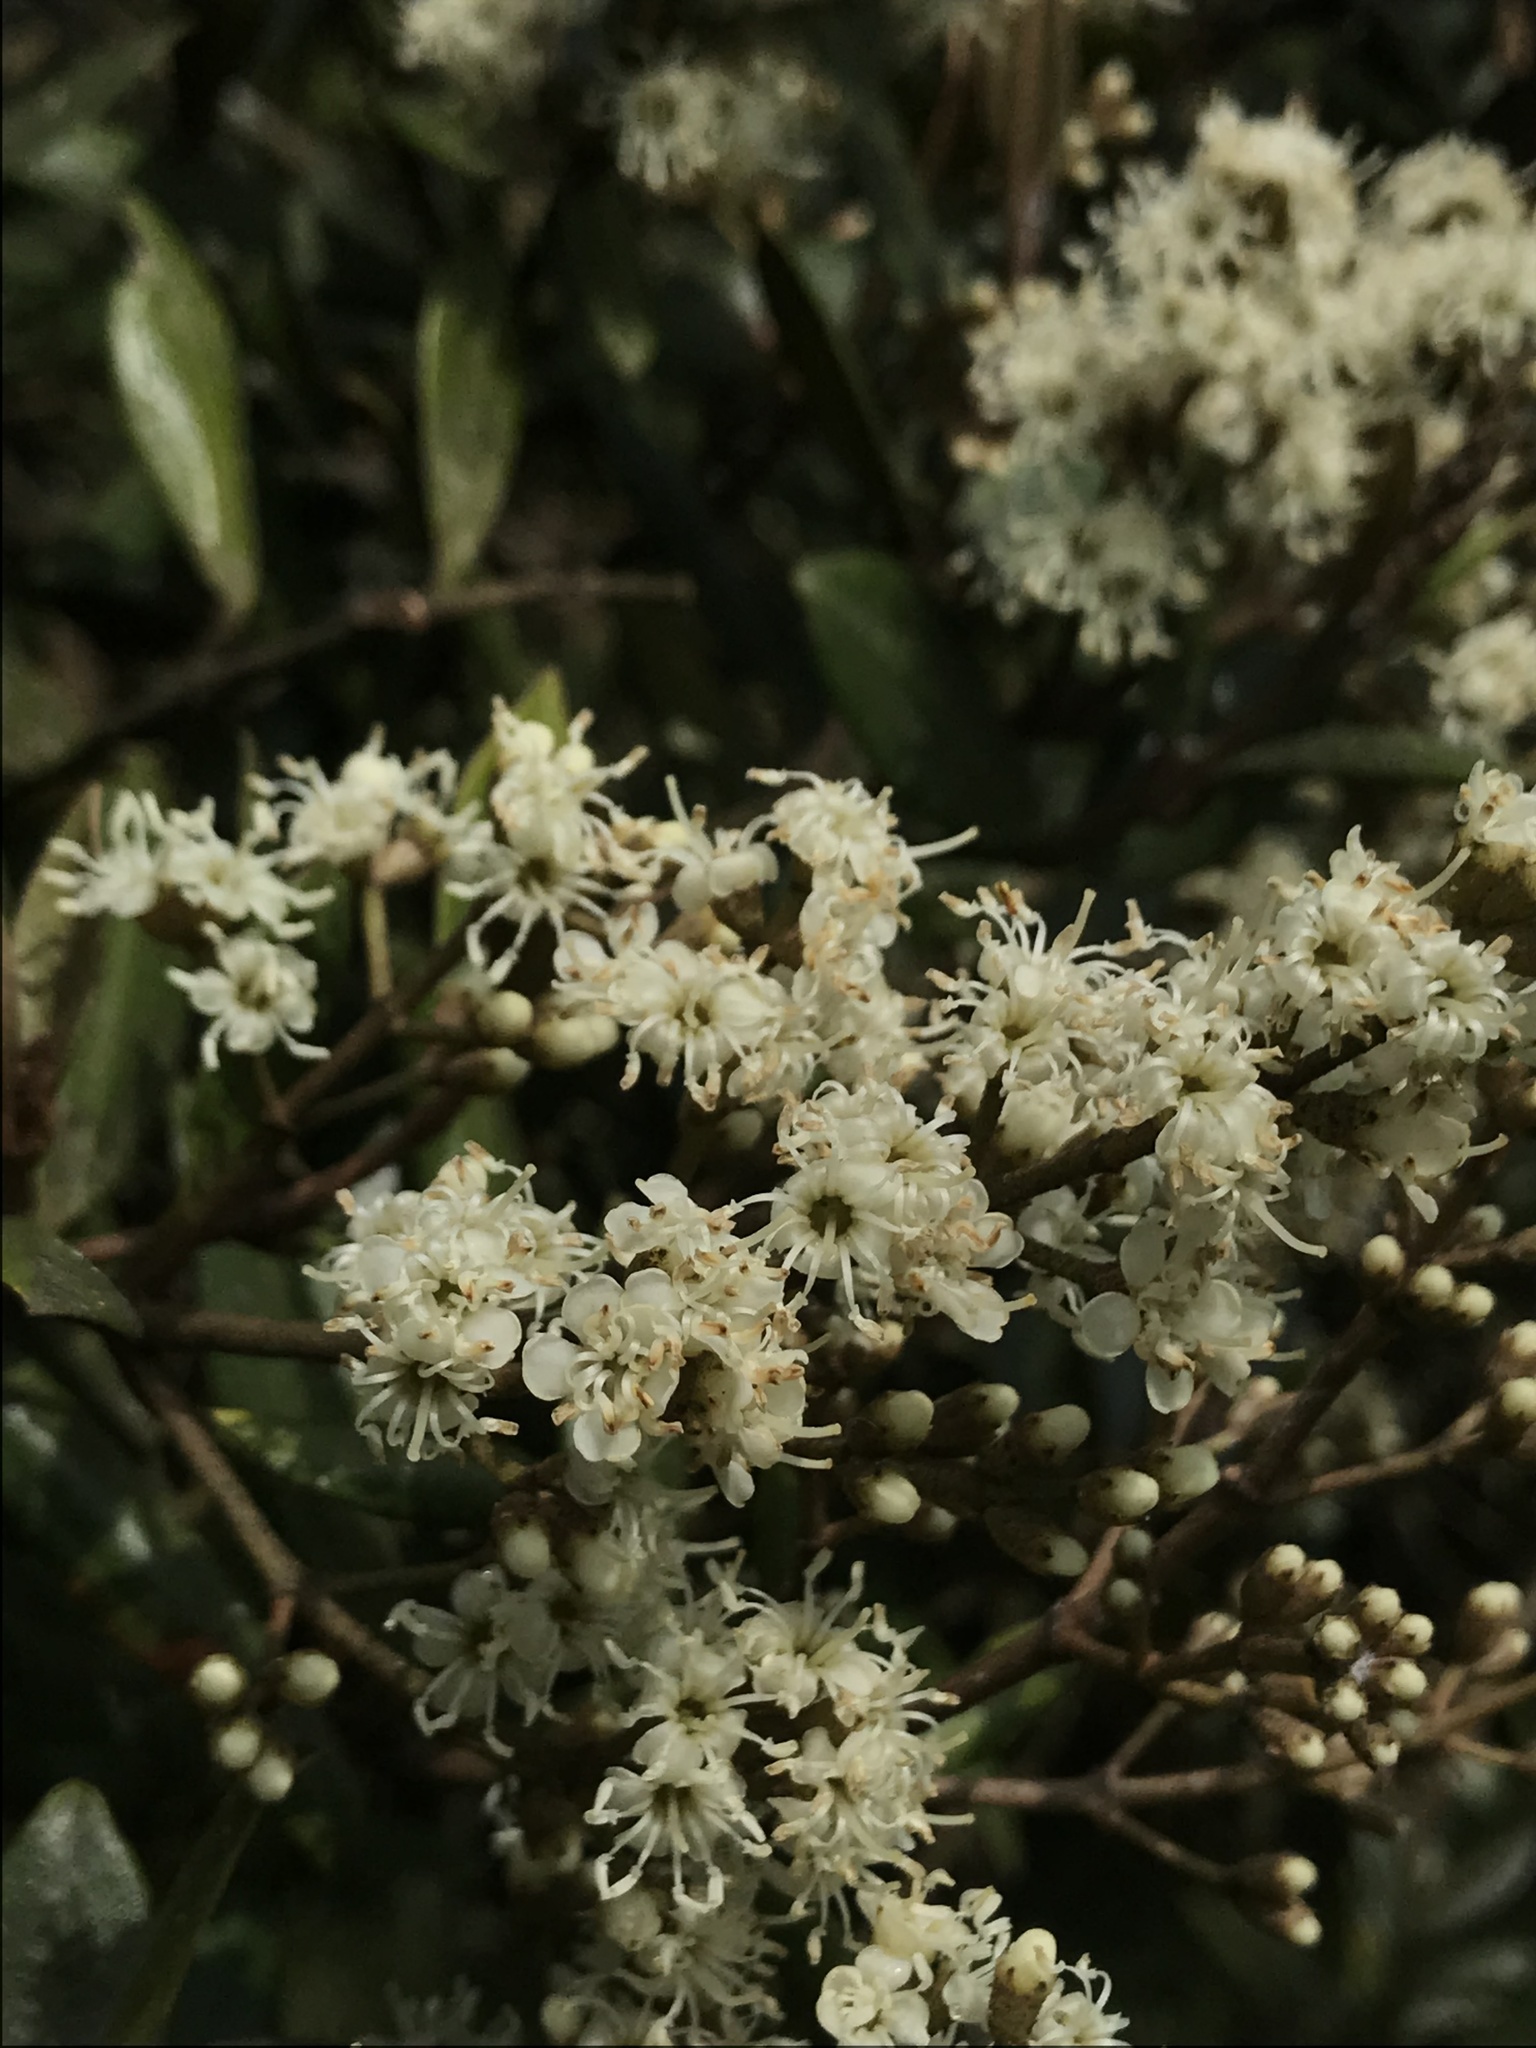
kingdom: Plantae
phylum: Tracheophyta
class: Magnoliopsida
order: Myrtales
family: Melastomataceae
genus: Miconia
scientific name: Miconia squamulosa
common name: Squamulose maya
